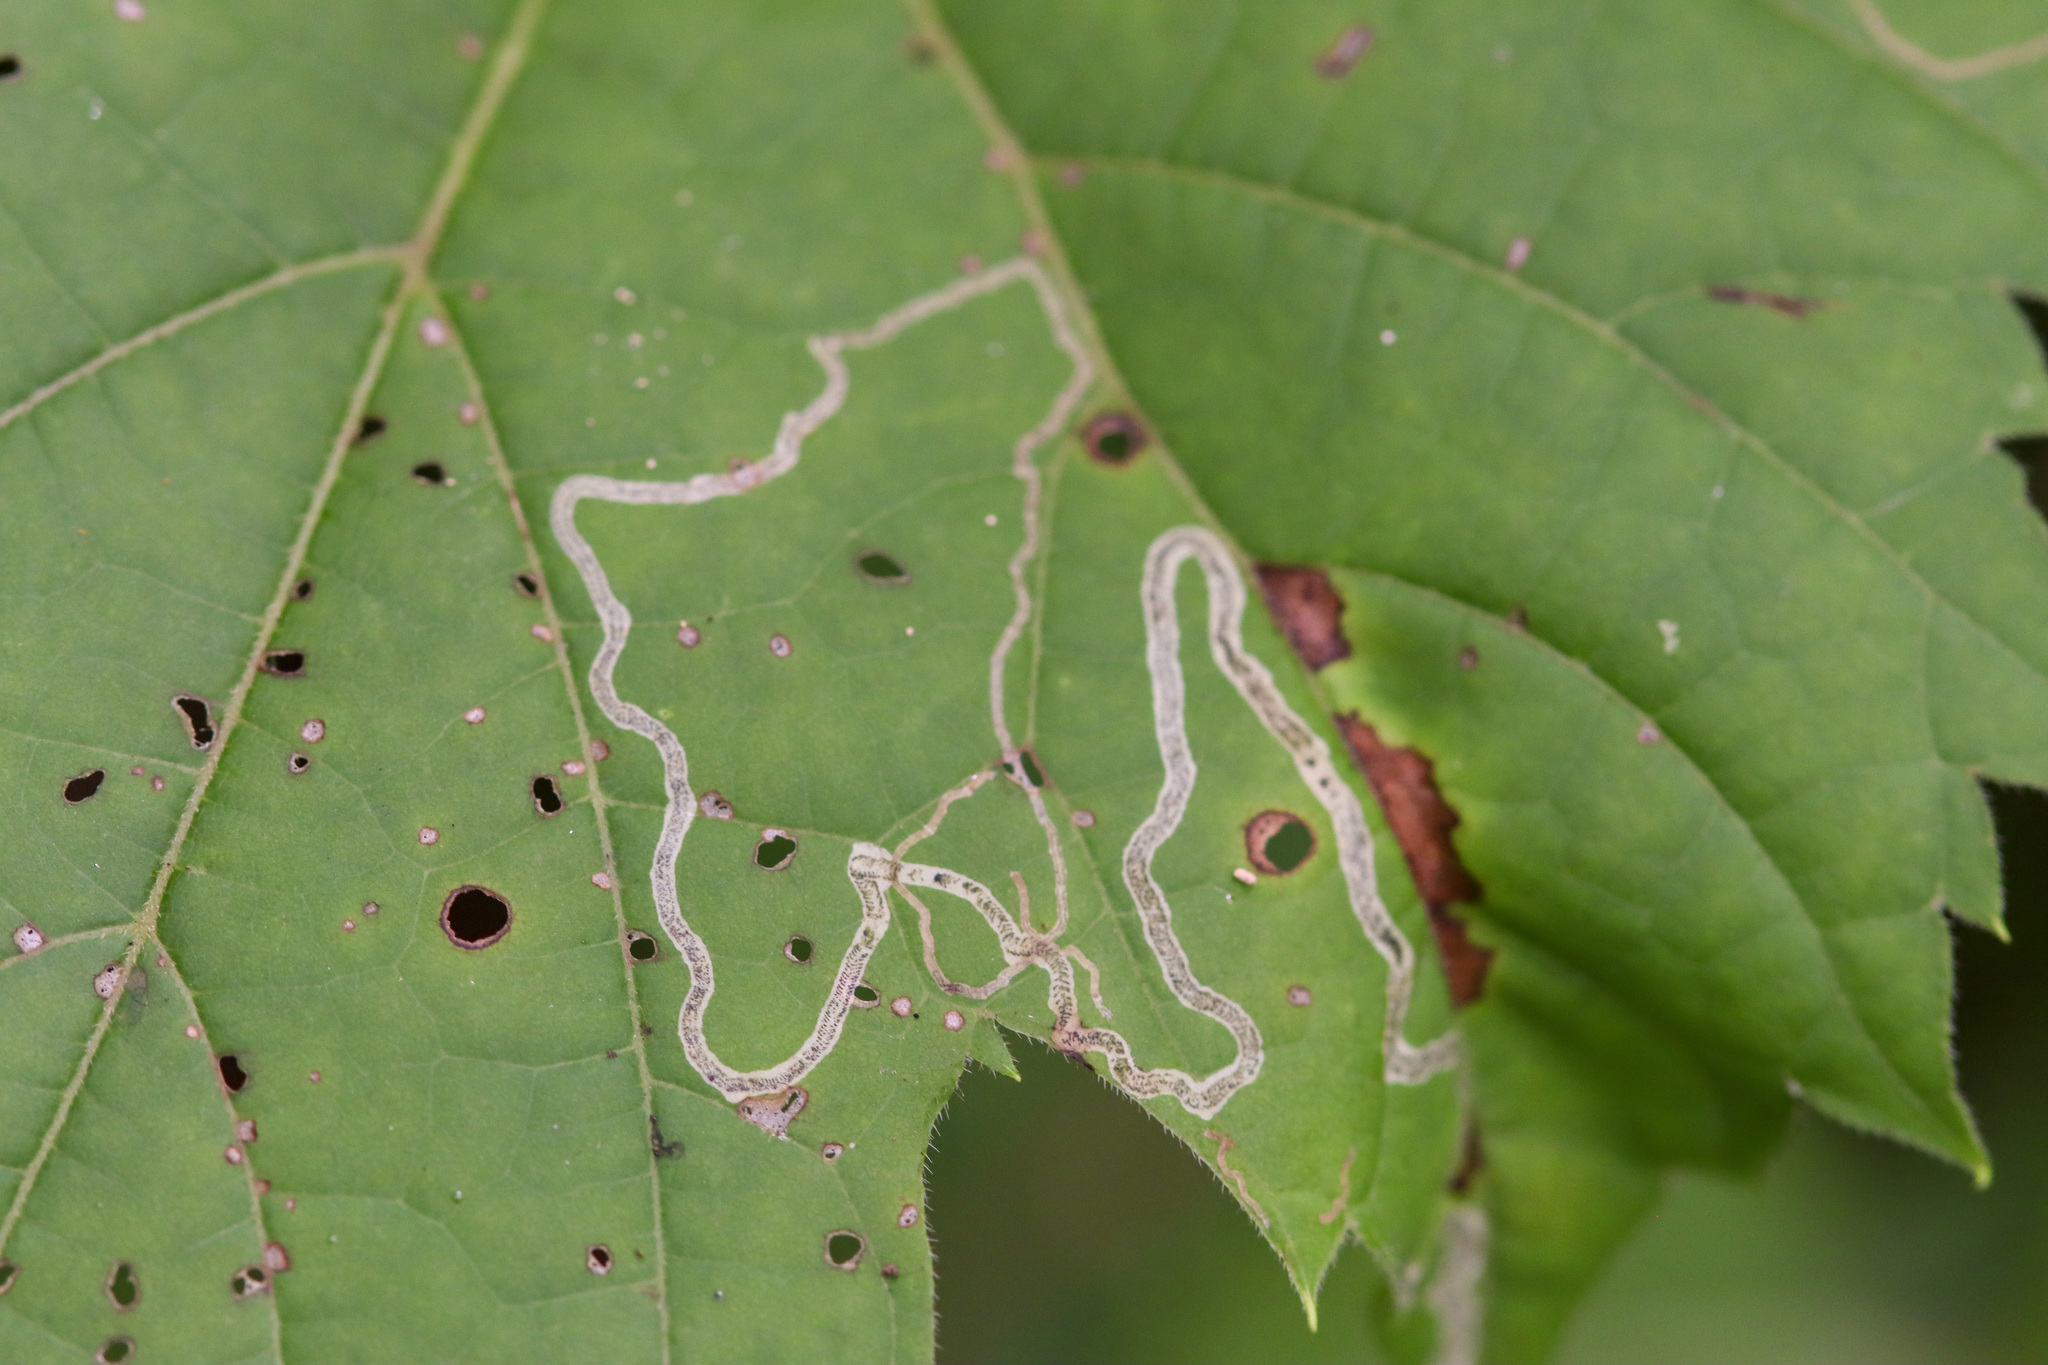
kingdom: Animalia
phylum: Arthropoda
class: Insecta
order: Lepidoptera
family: Gracillariidae
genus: Phyllocnistis
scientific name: Phyllocnistis vitifoliella
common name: Grape leaf-miner moth
